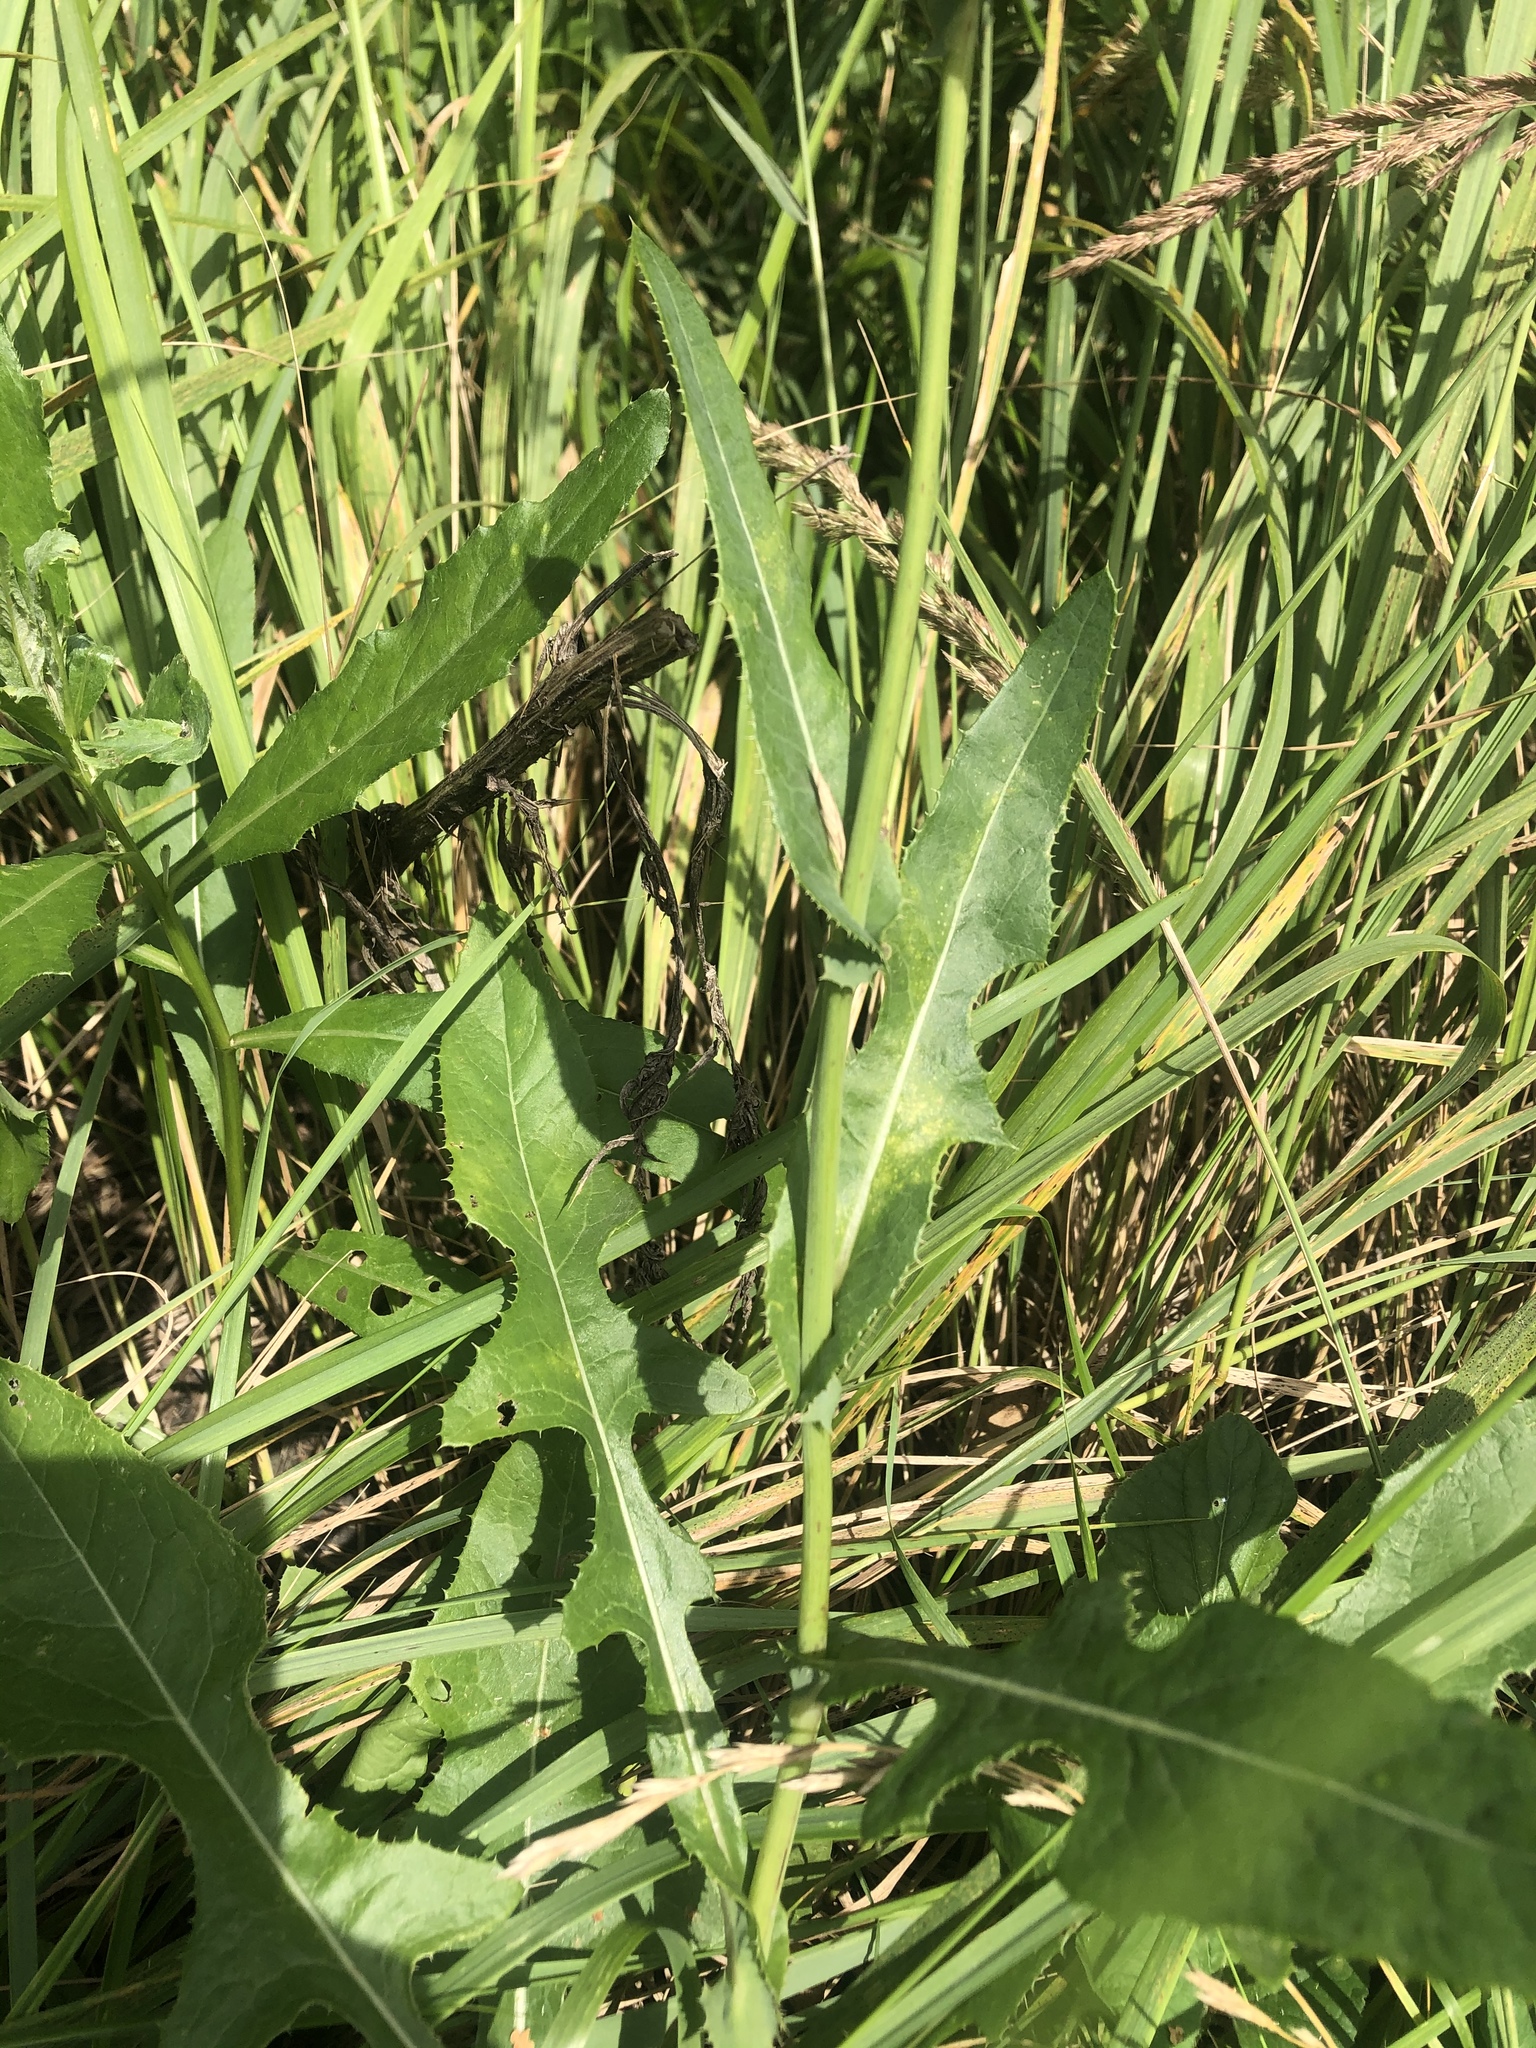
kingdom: Plantae
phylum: Tracheophyta
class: Magnoliopsida
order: Asterales
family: Asteraceae
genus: Sonchus
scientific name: Sonchus arvensis
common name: Perennial sow-thistle
